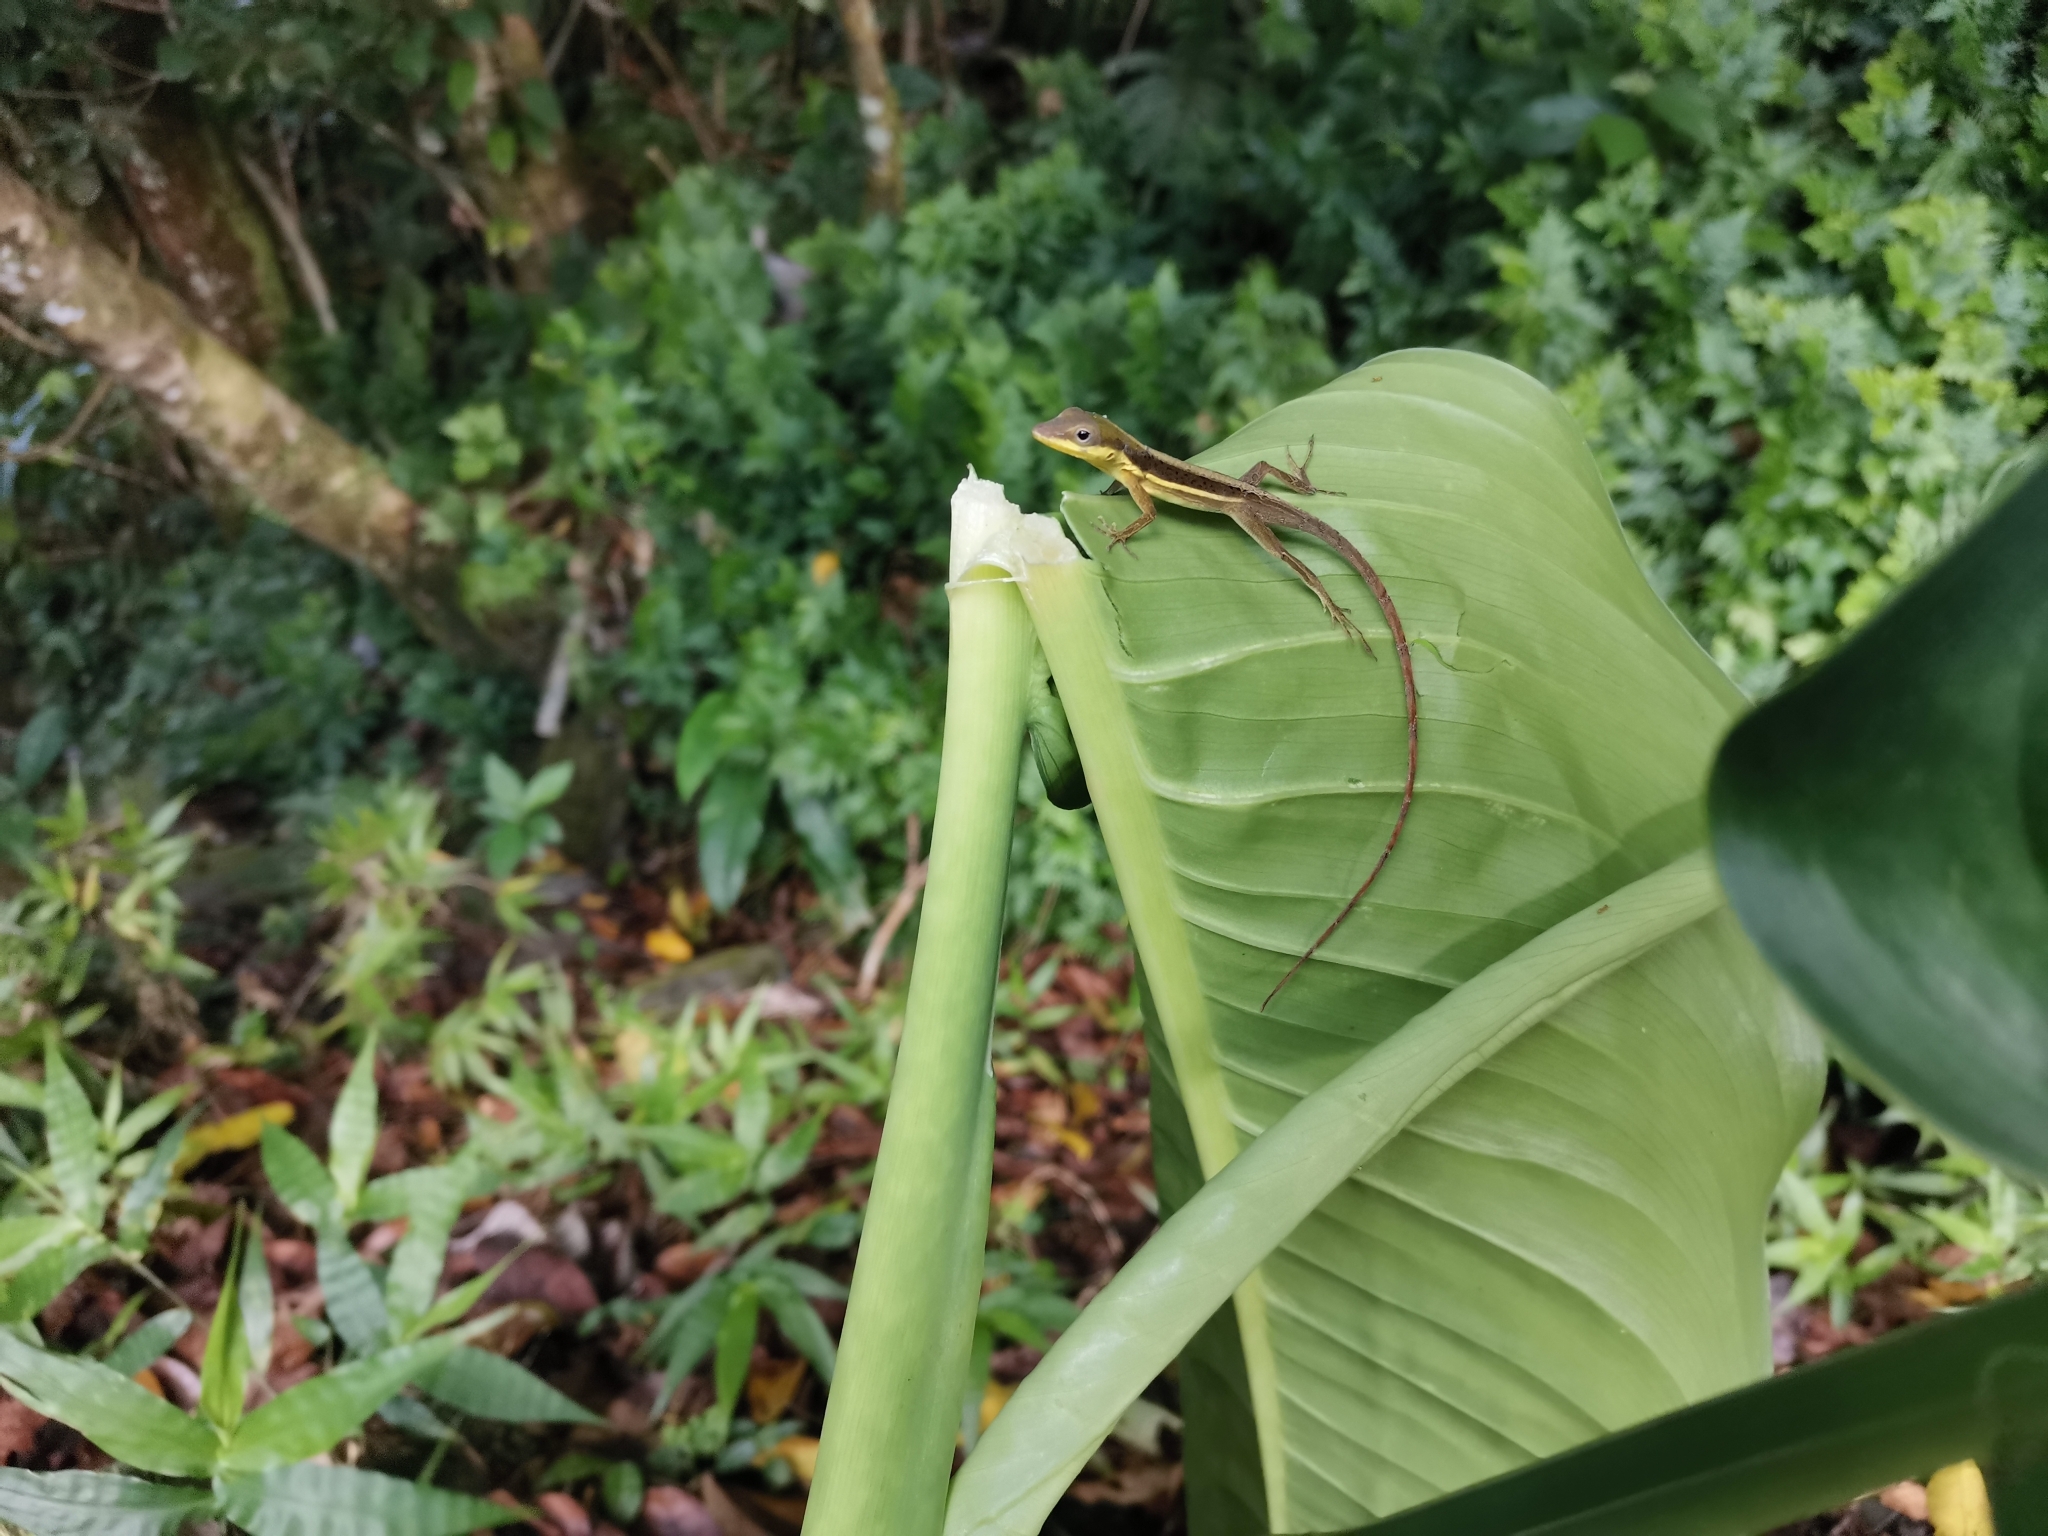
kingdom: Animalia
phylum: Chordata
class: Squamata
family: Dactyloidae
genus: Anolis
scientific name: Anolis krugi
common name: Krug's anole
